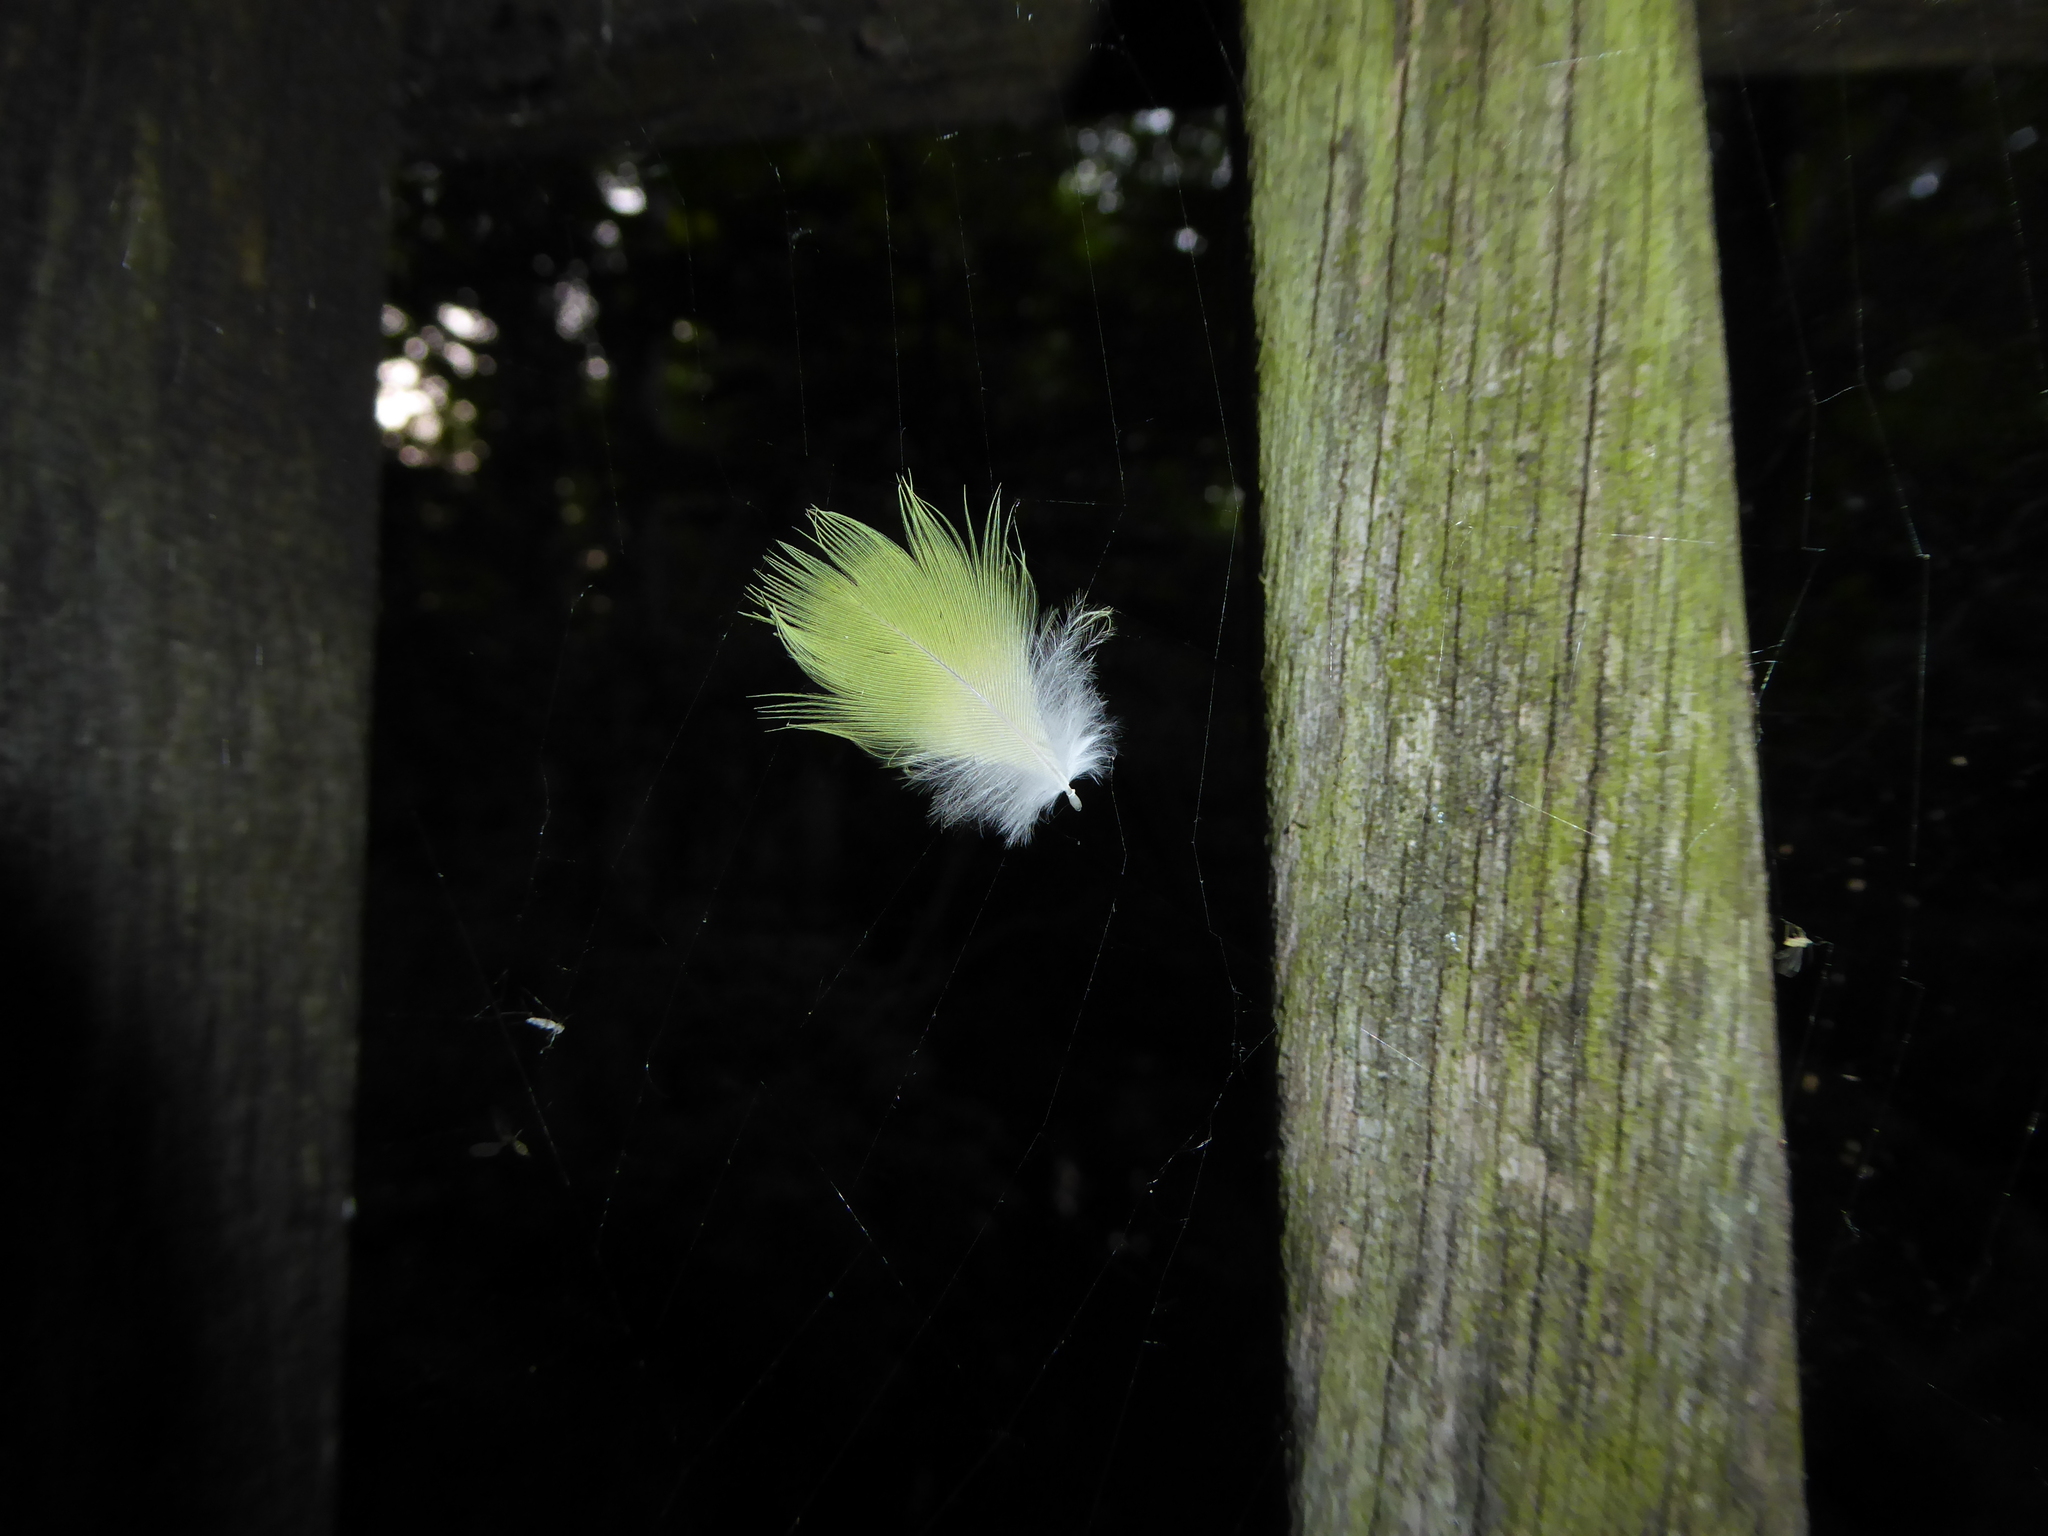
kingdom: Animalia
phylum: Chordata
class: Aves
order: Psittaciformes
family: Psittacidae
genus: Psittacula
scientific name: Psittacula krameri
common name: Rose-ringed parakeet
